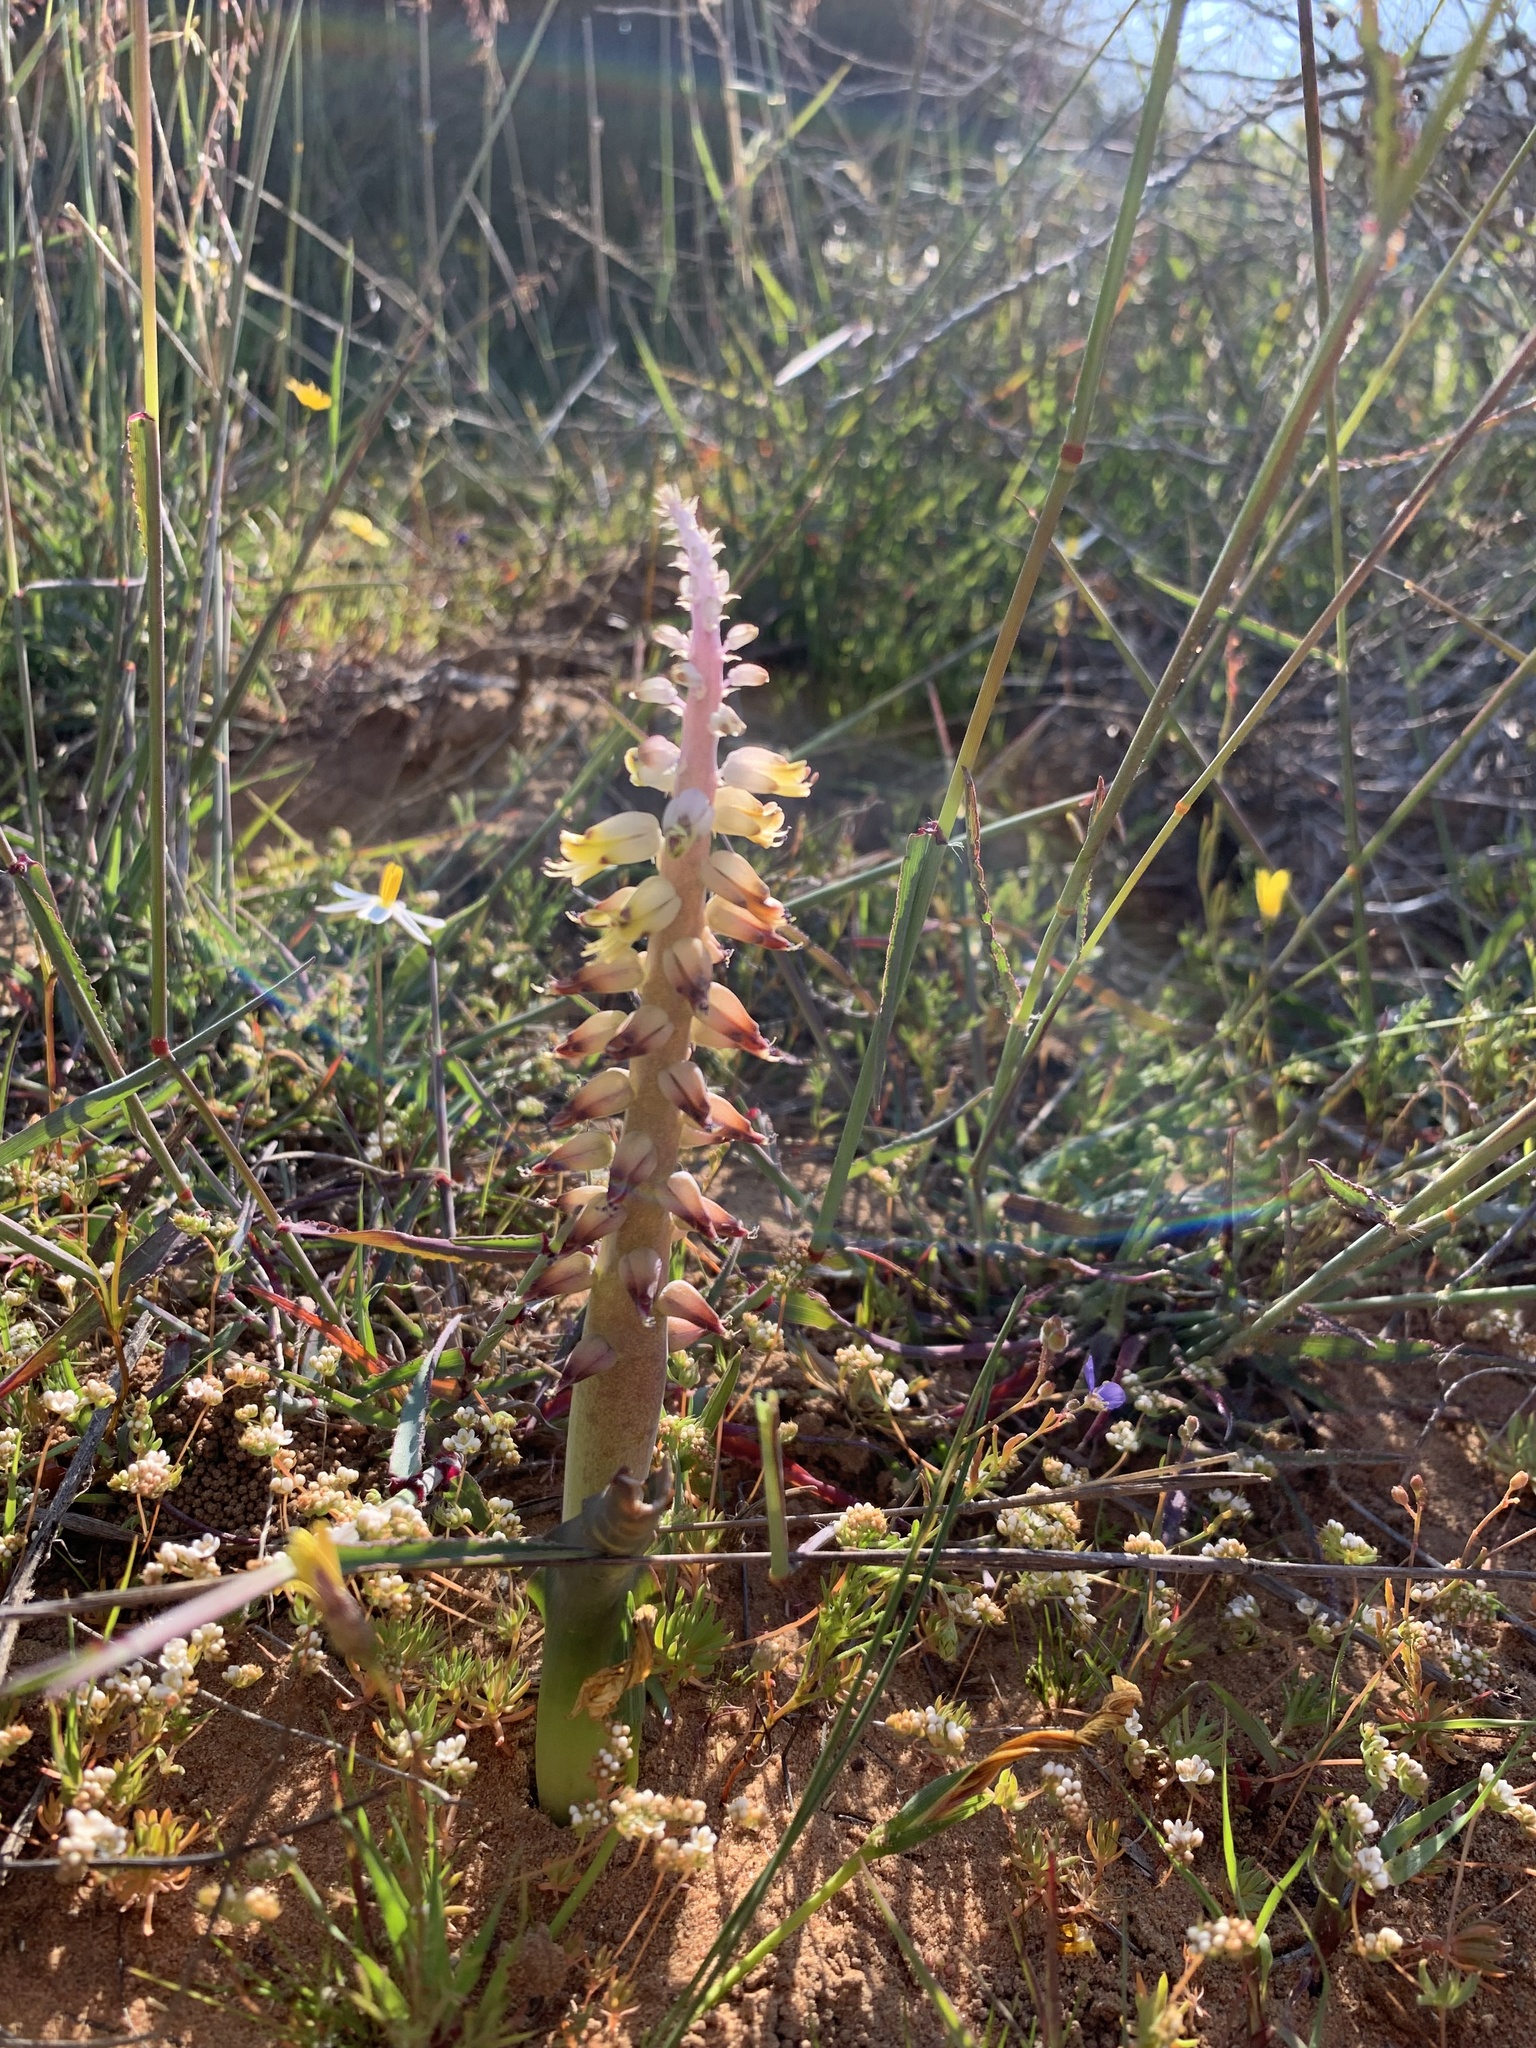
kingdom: Plantae
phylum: Tracheophyta
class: Liliopsida
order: Asparagales
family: Asparagaceae
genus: Lachenalia
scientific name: Lachenalia mutabilis
